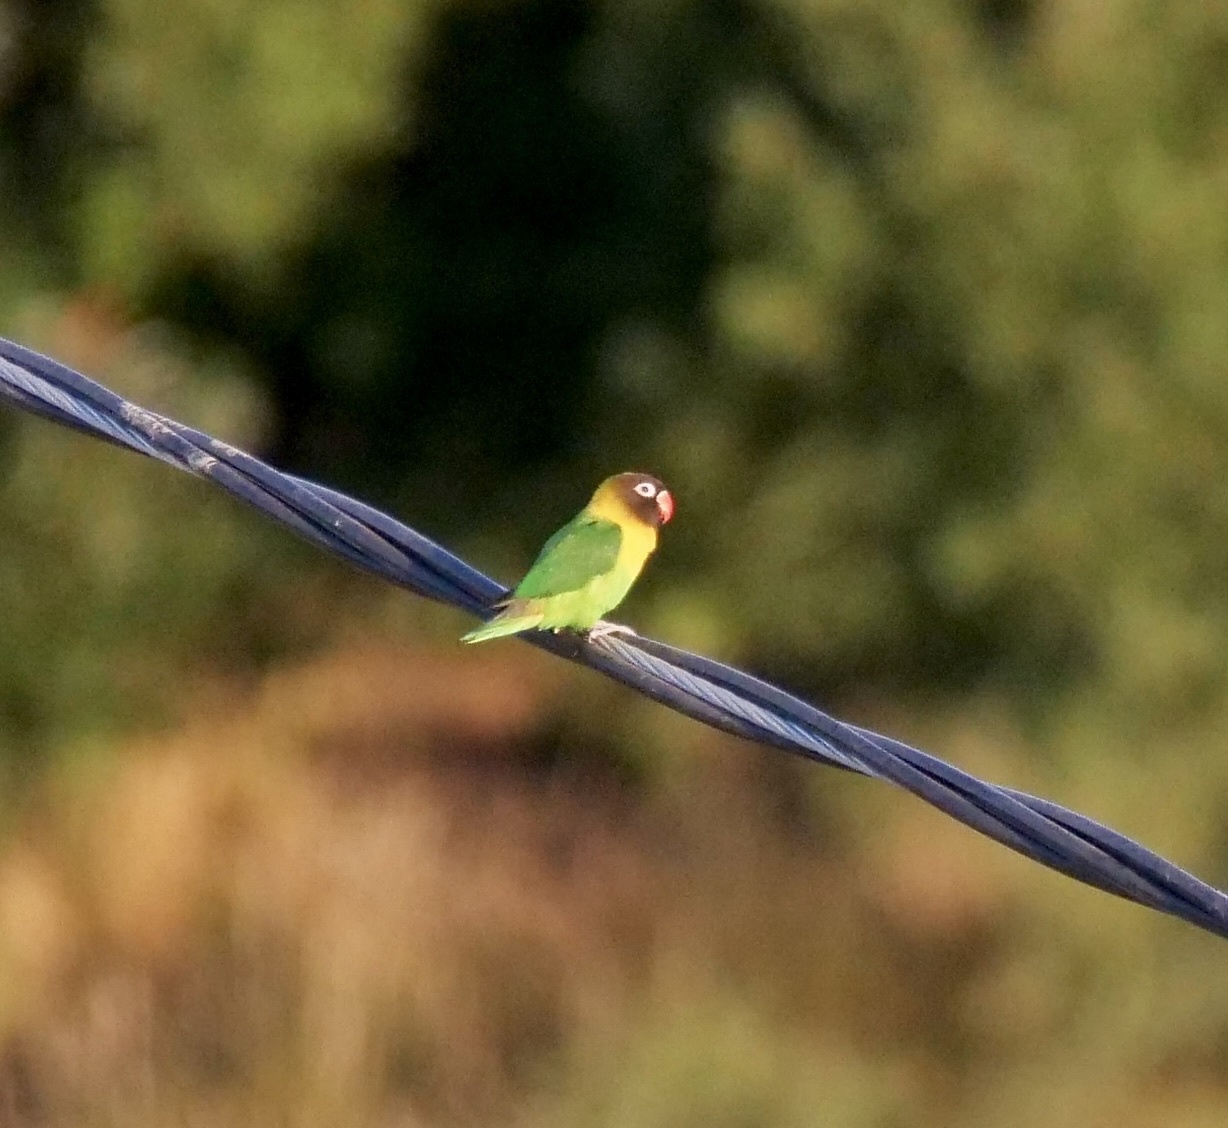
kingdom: Animalia
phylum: Chordata
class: Aves
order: Psittaciformes
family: Psittacidae
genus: Agapornis
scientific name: Agapornis personatus
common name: Yellow-collared lovebird
